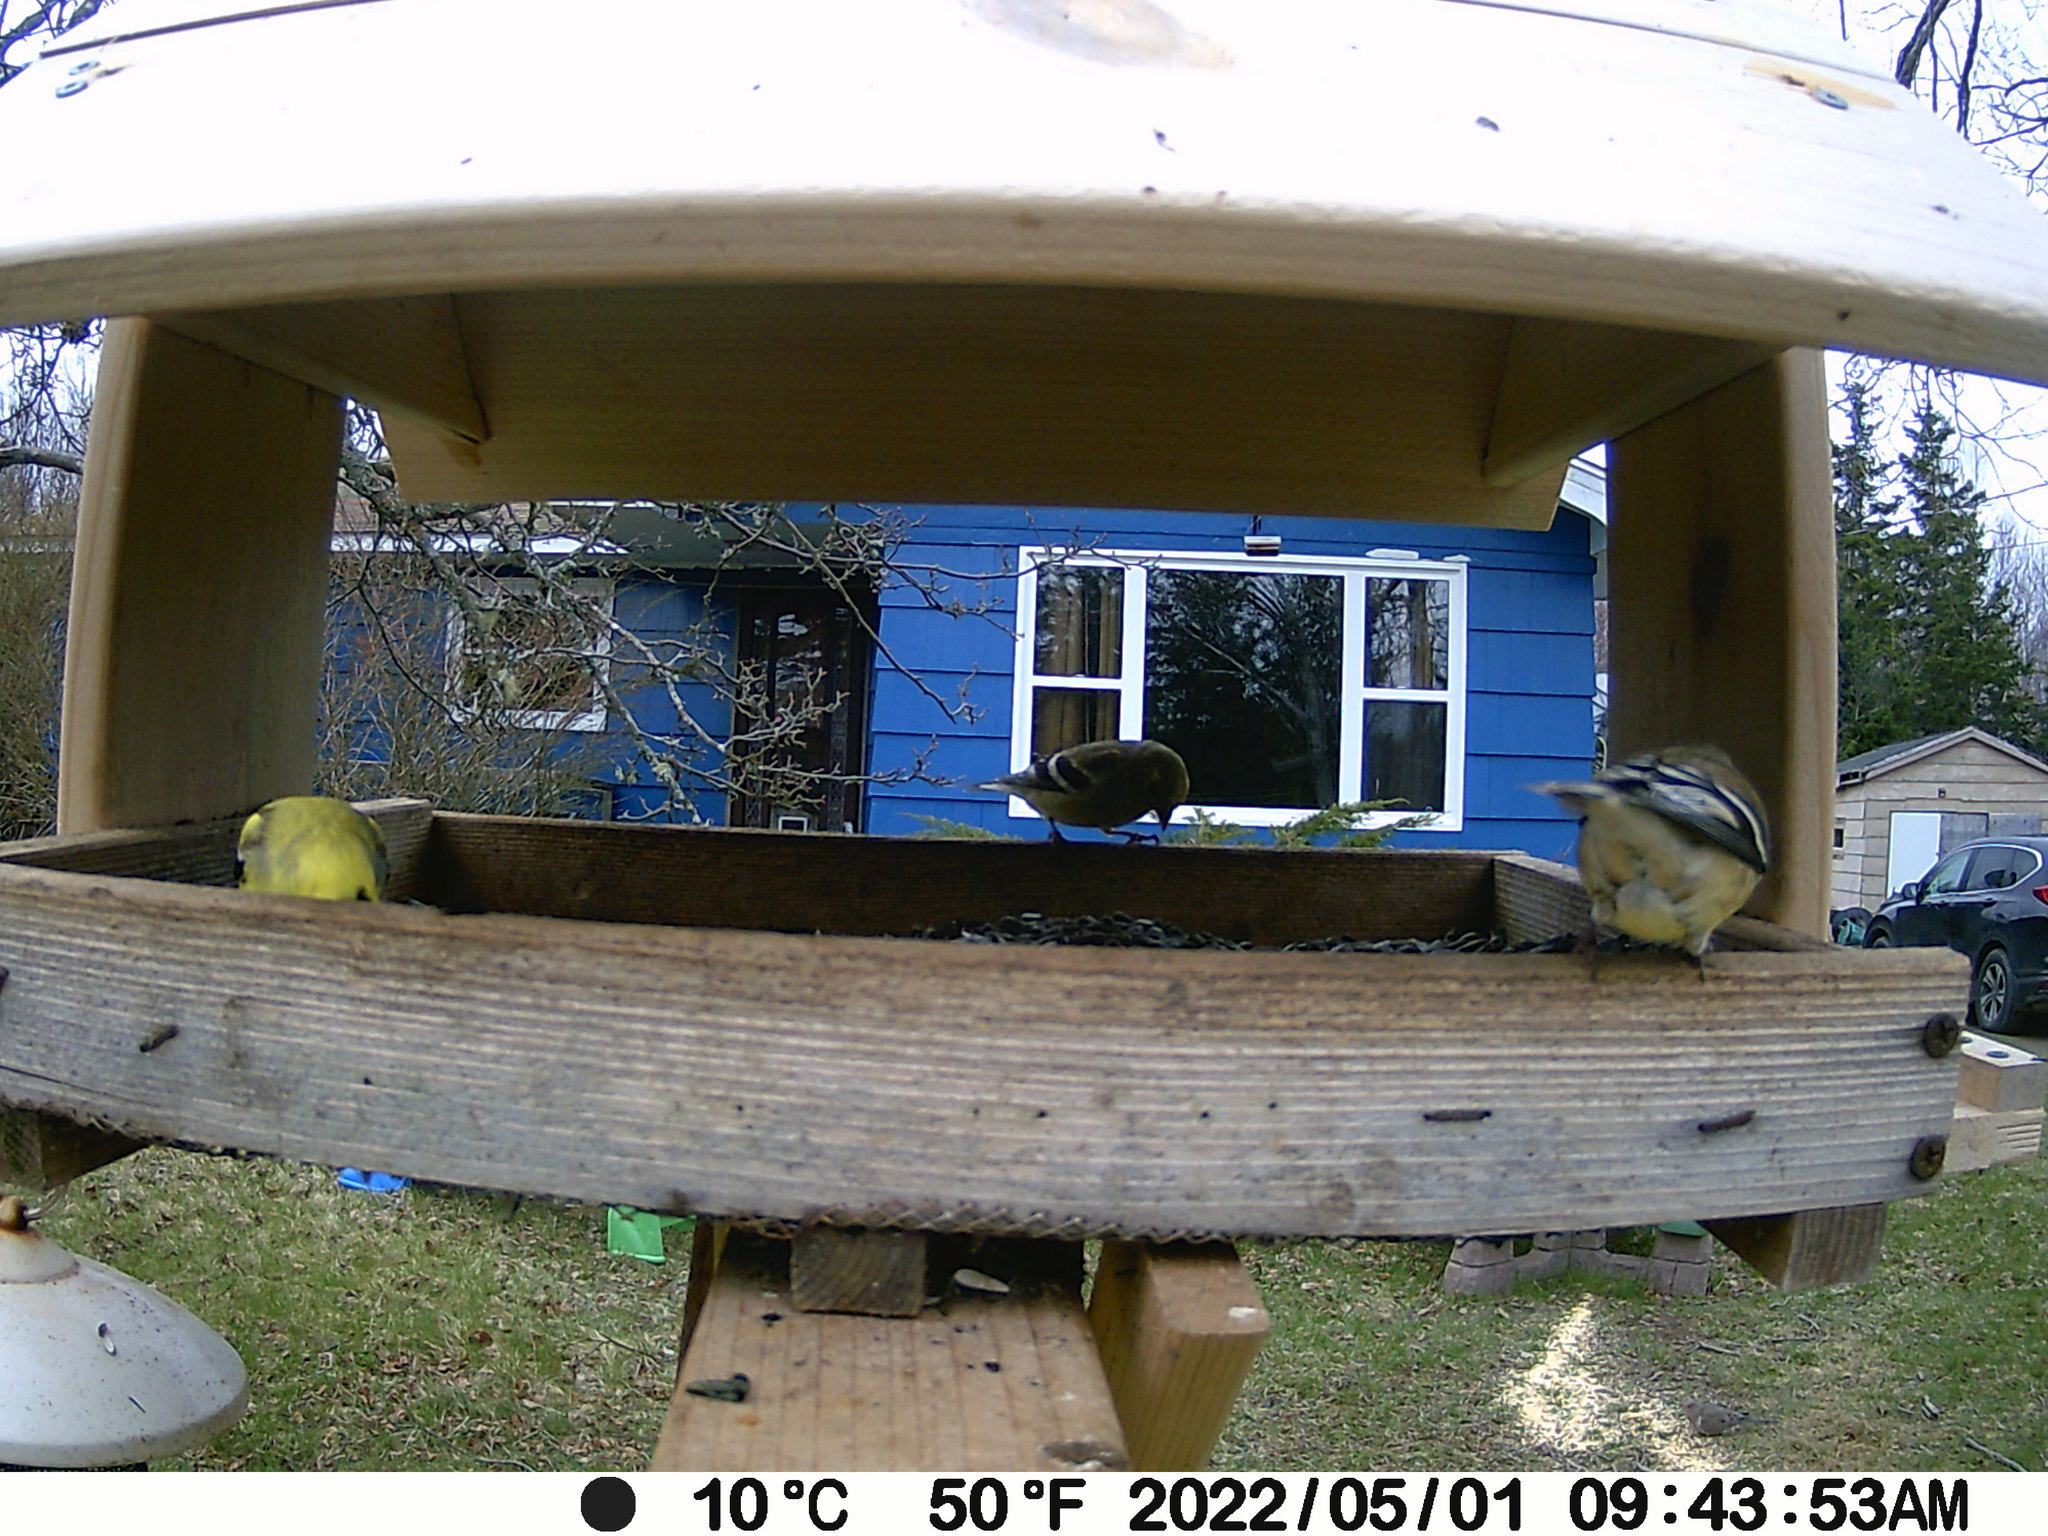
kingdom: Animalia
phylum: Chordata
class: Aves
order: Passeriformes
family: Fringillidae
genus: Spinus
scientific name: Spinus tristis
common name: American goldfinch
